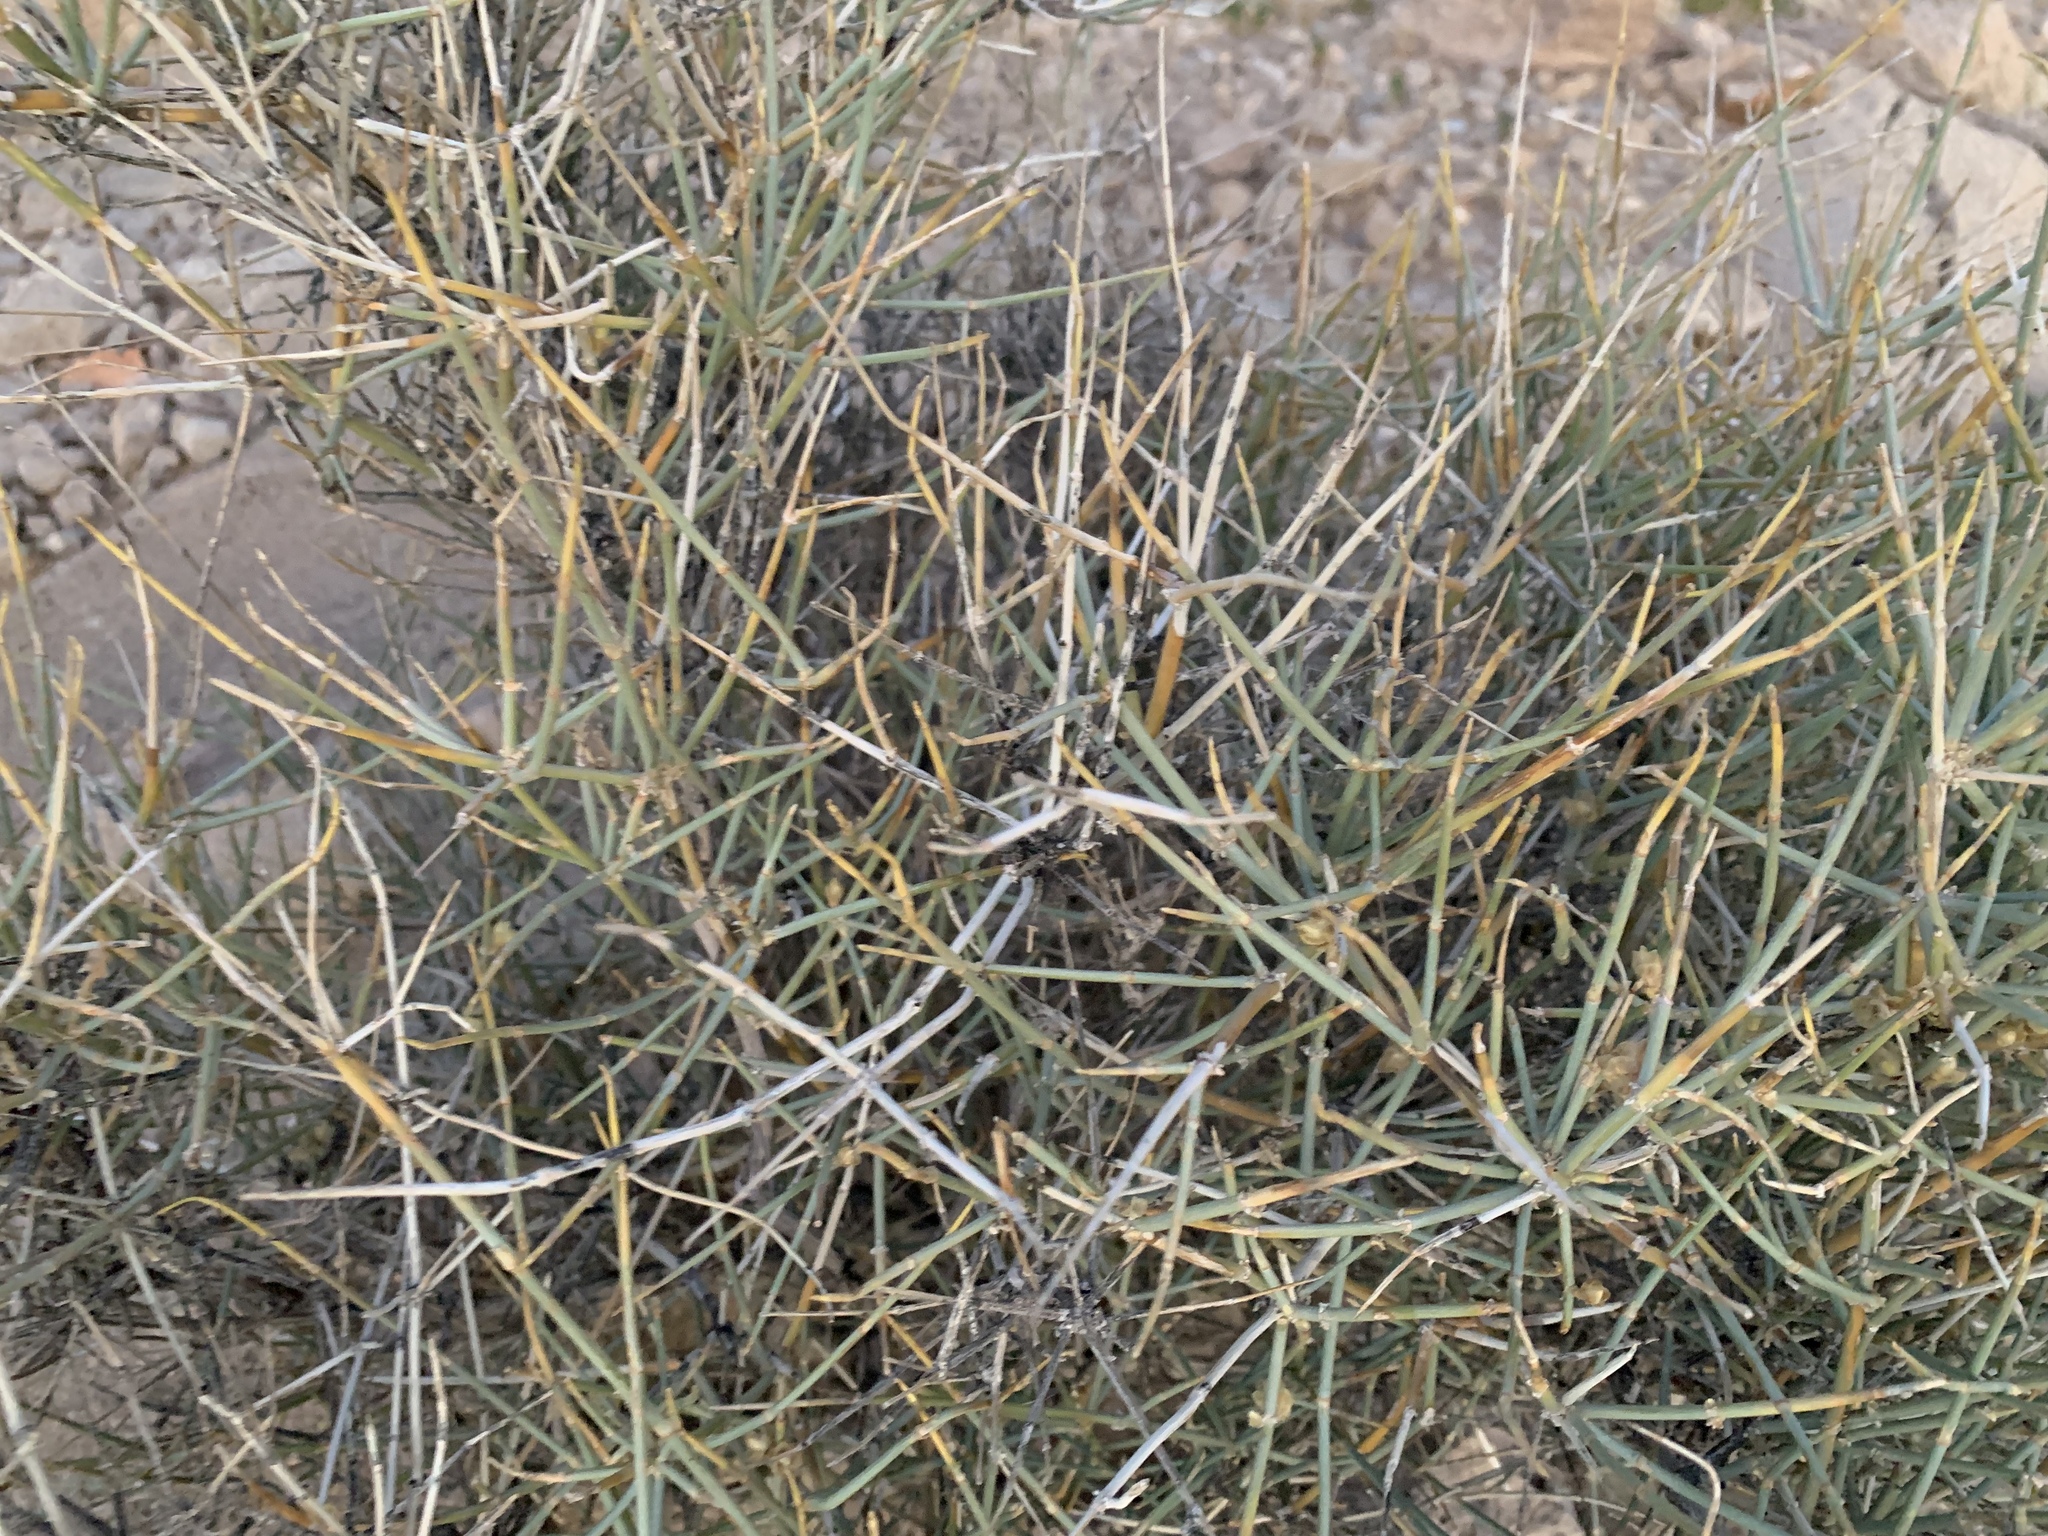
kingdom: Plantae
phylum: Tracheophyta
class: Gnetopsida
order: Ephedrales
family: Ephedraceae
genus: Ephedra
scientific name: Ephedra nevadensis
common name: Gray ephedra
